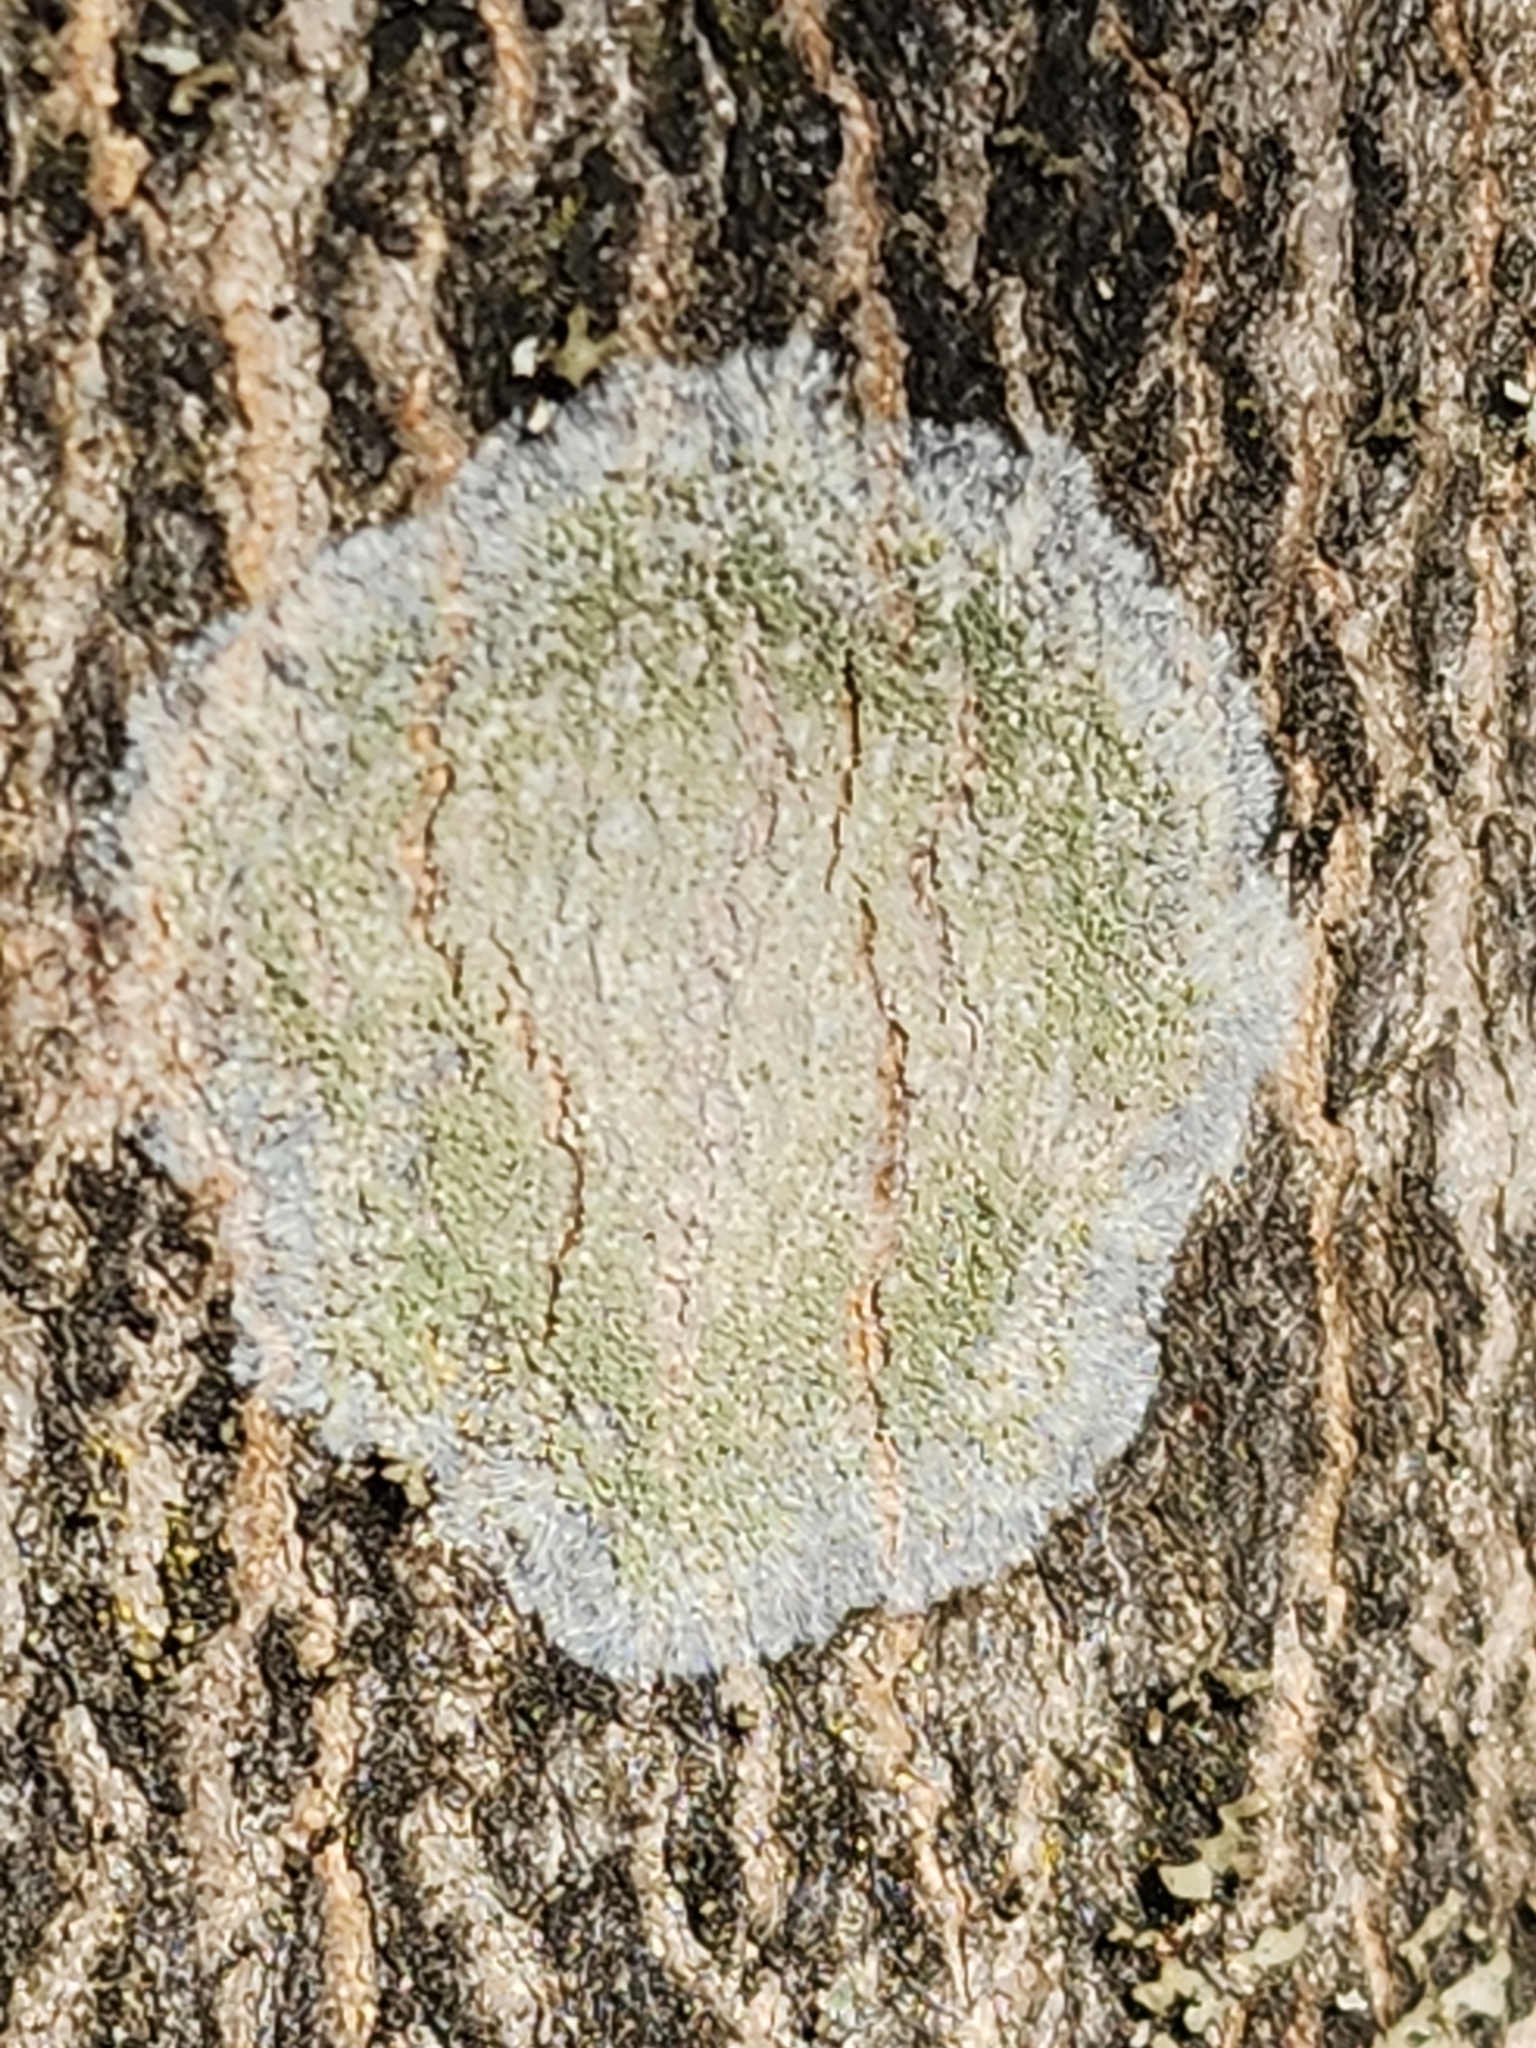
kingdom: Fungi
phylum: Ascomycota
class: Lecanoromycetes
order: Pertusariales
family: Pertusariaceae
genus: Verseghya
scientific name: Verseghya thysanophora
